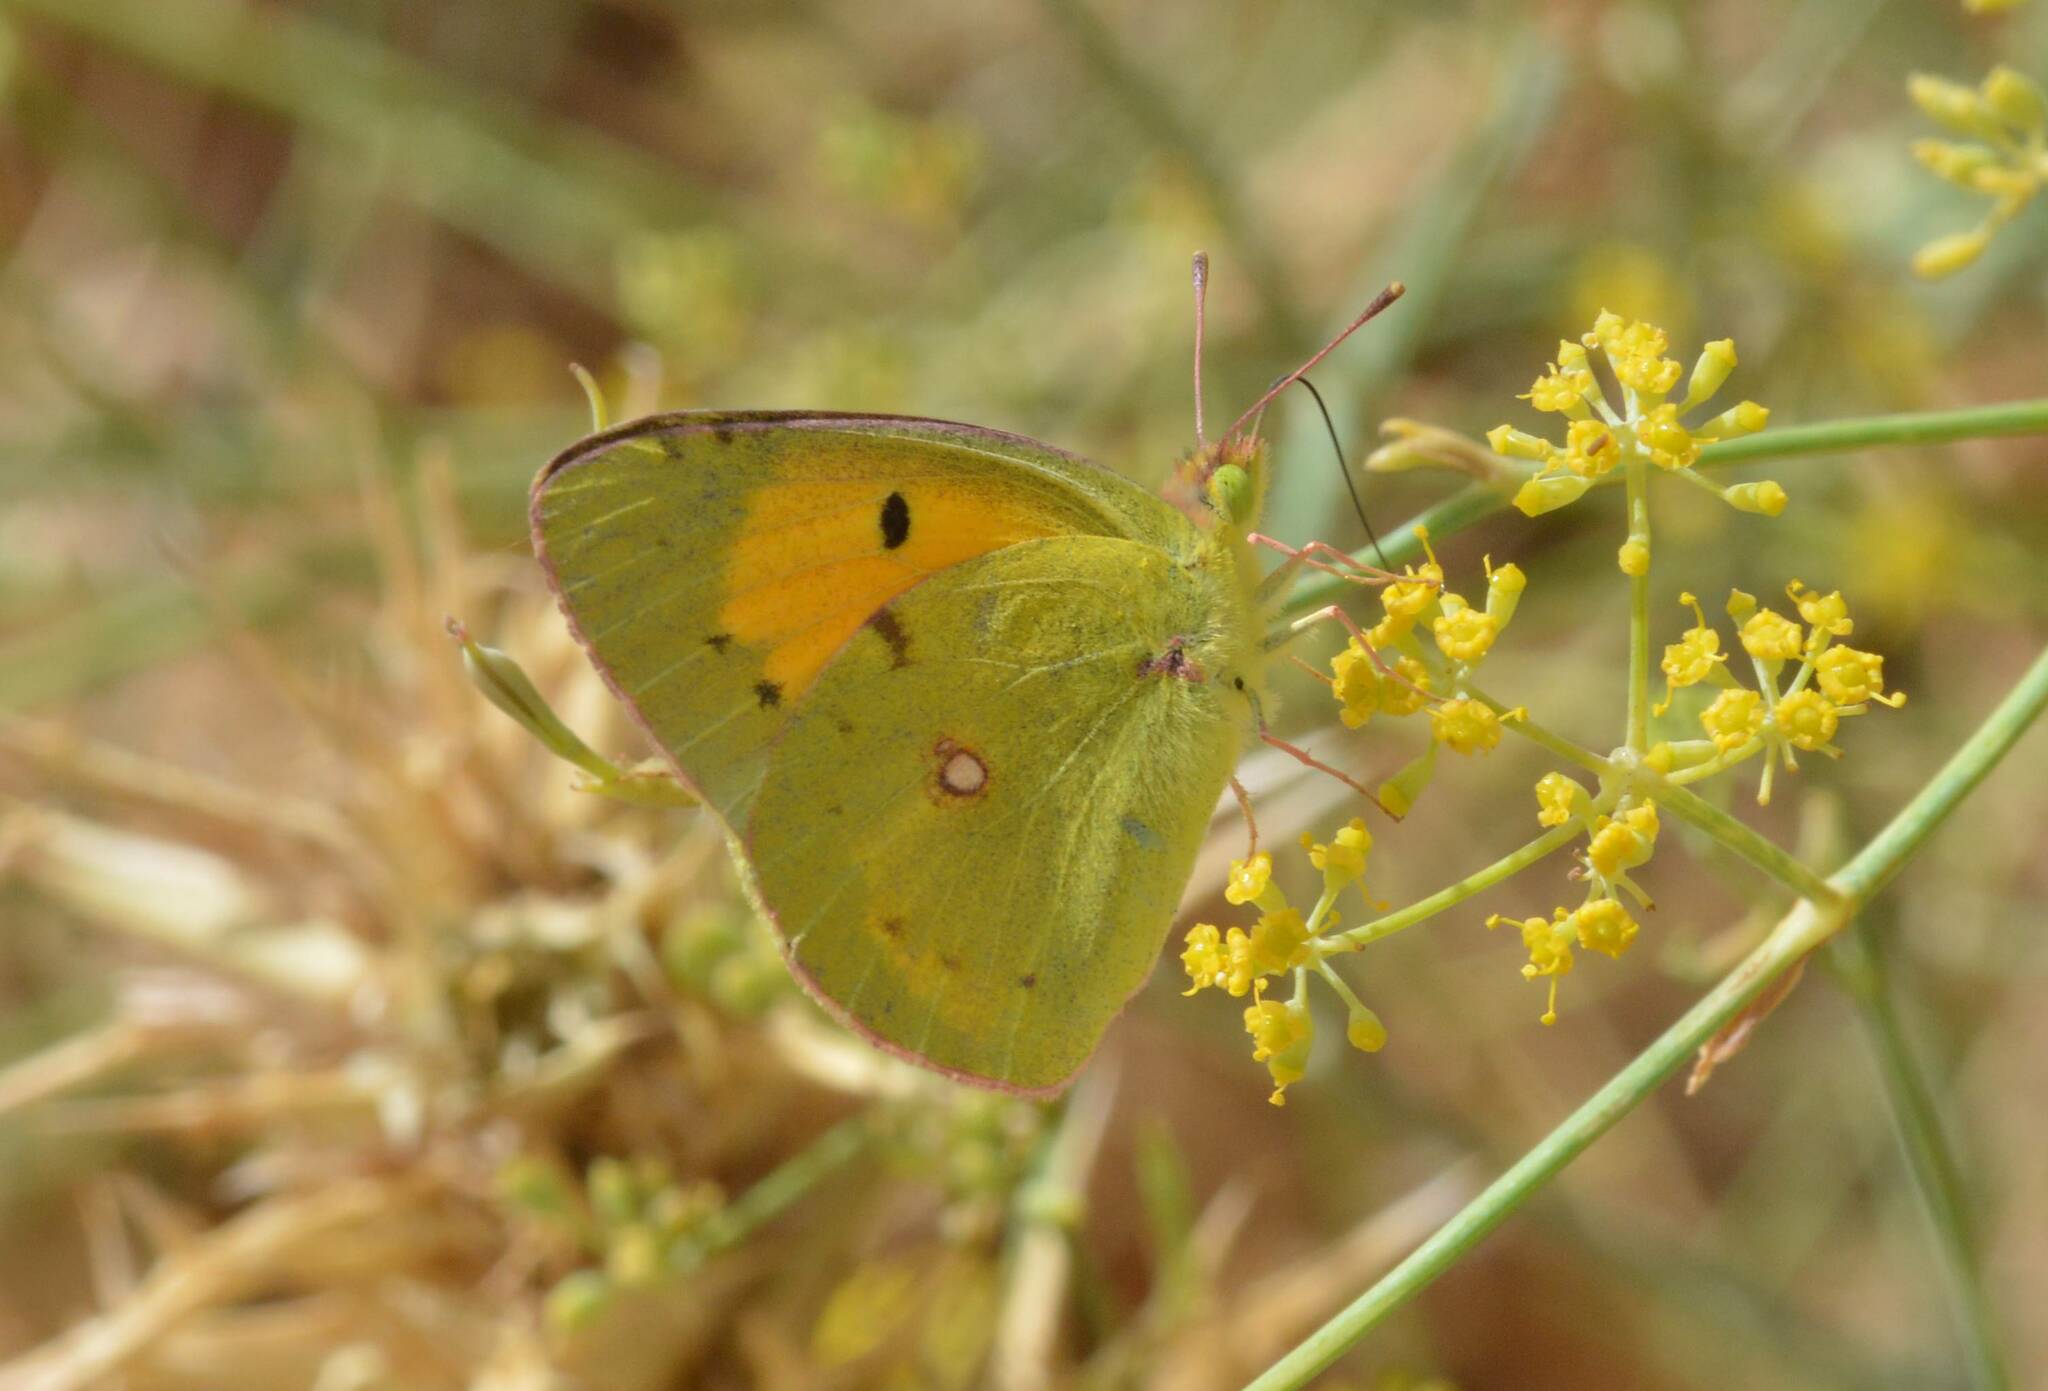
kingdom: Animalia
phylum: Arthropoda
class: Insecta
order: Lepidoptera
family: Pieridae
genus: Colias
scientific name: Colias croceus
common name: Clouded yellow
